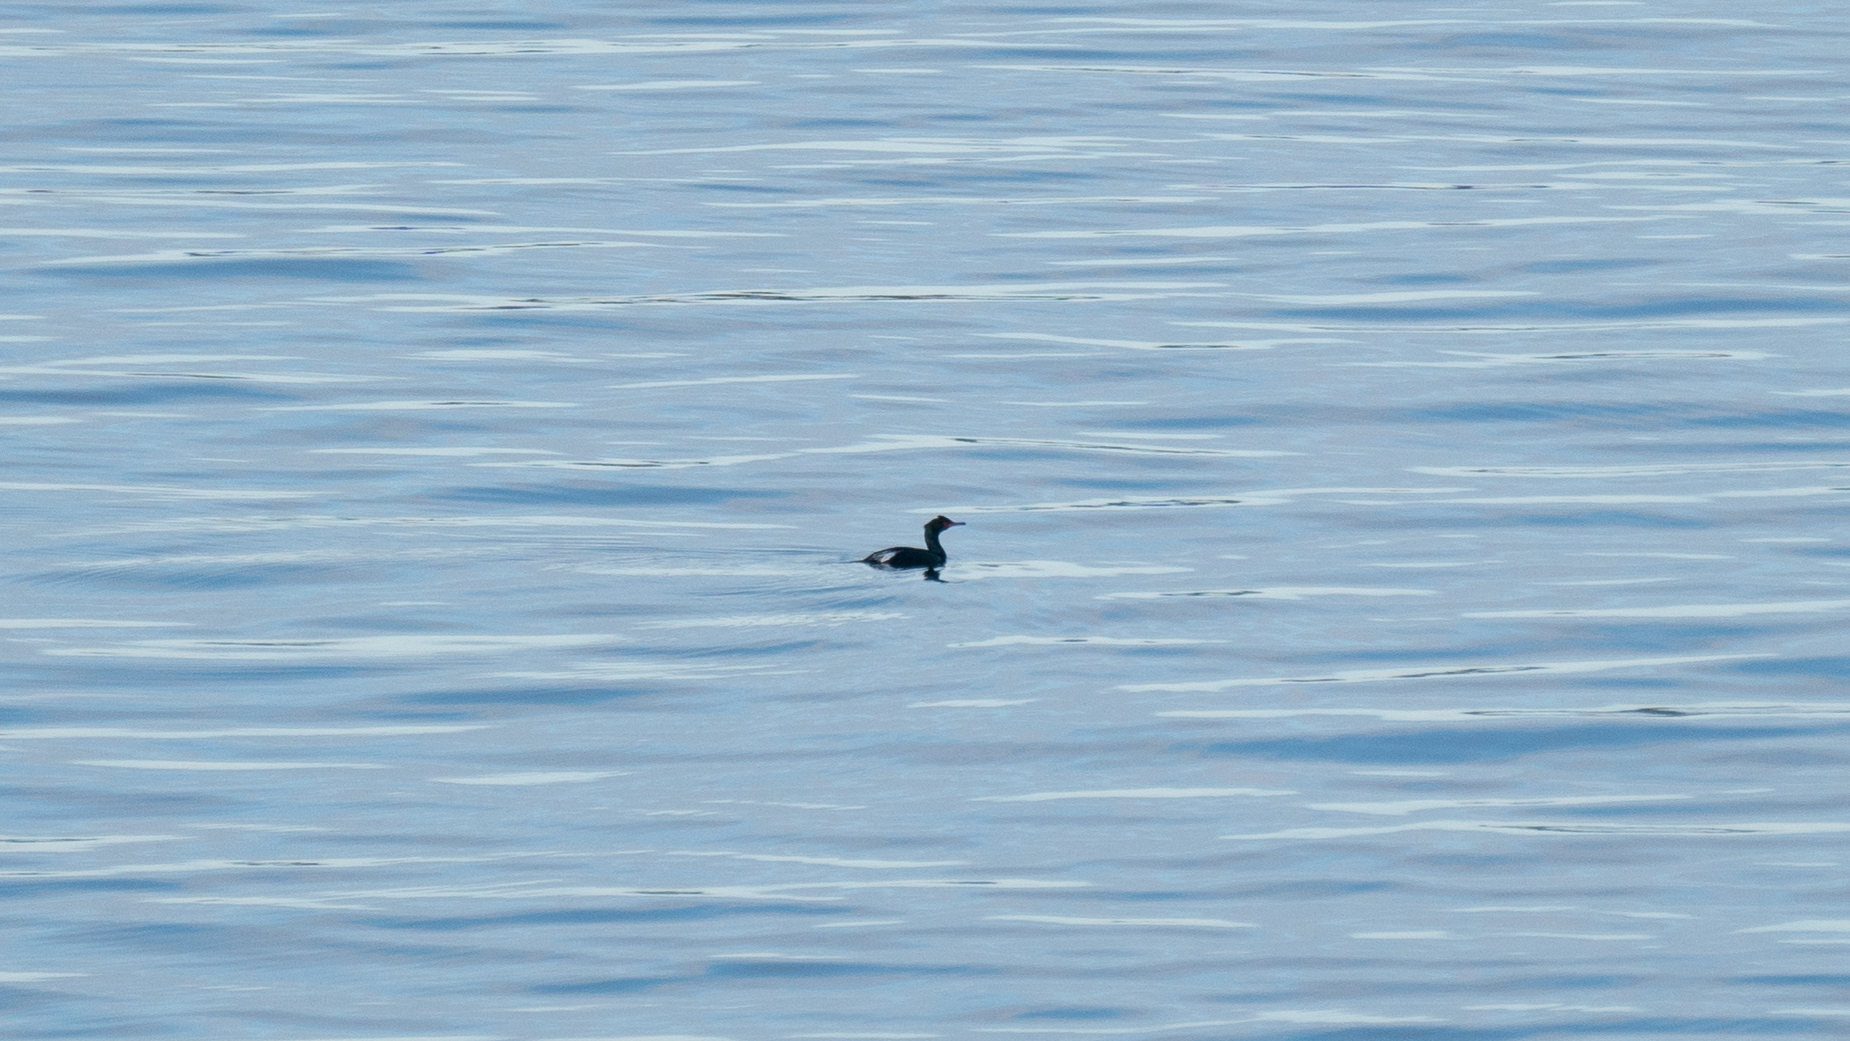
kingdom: Animalia
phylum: Chordata
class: Aves
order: Suliformes
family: Phalacrocoracidae
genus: Phalacrocorax
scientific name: Phalacrocorax pelagicus
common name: Pelagic cormorant
